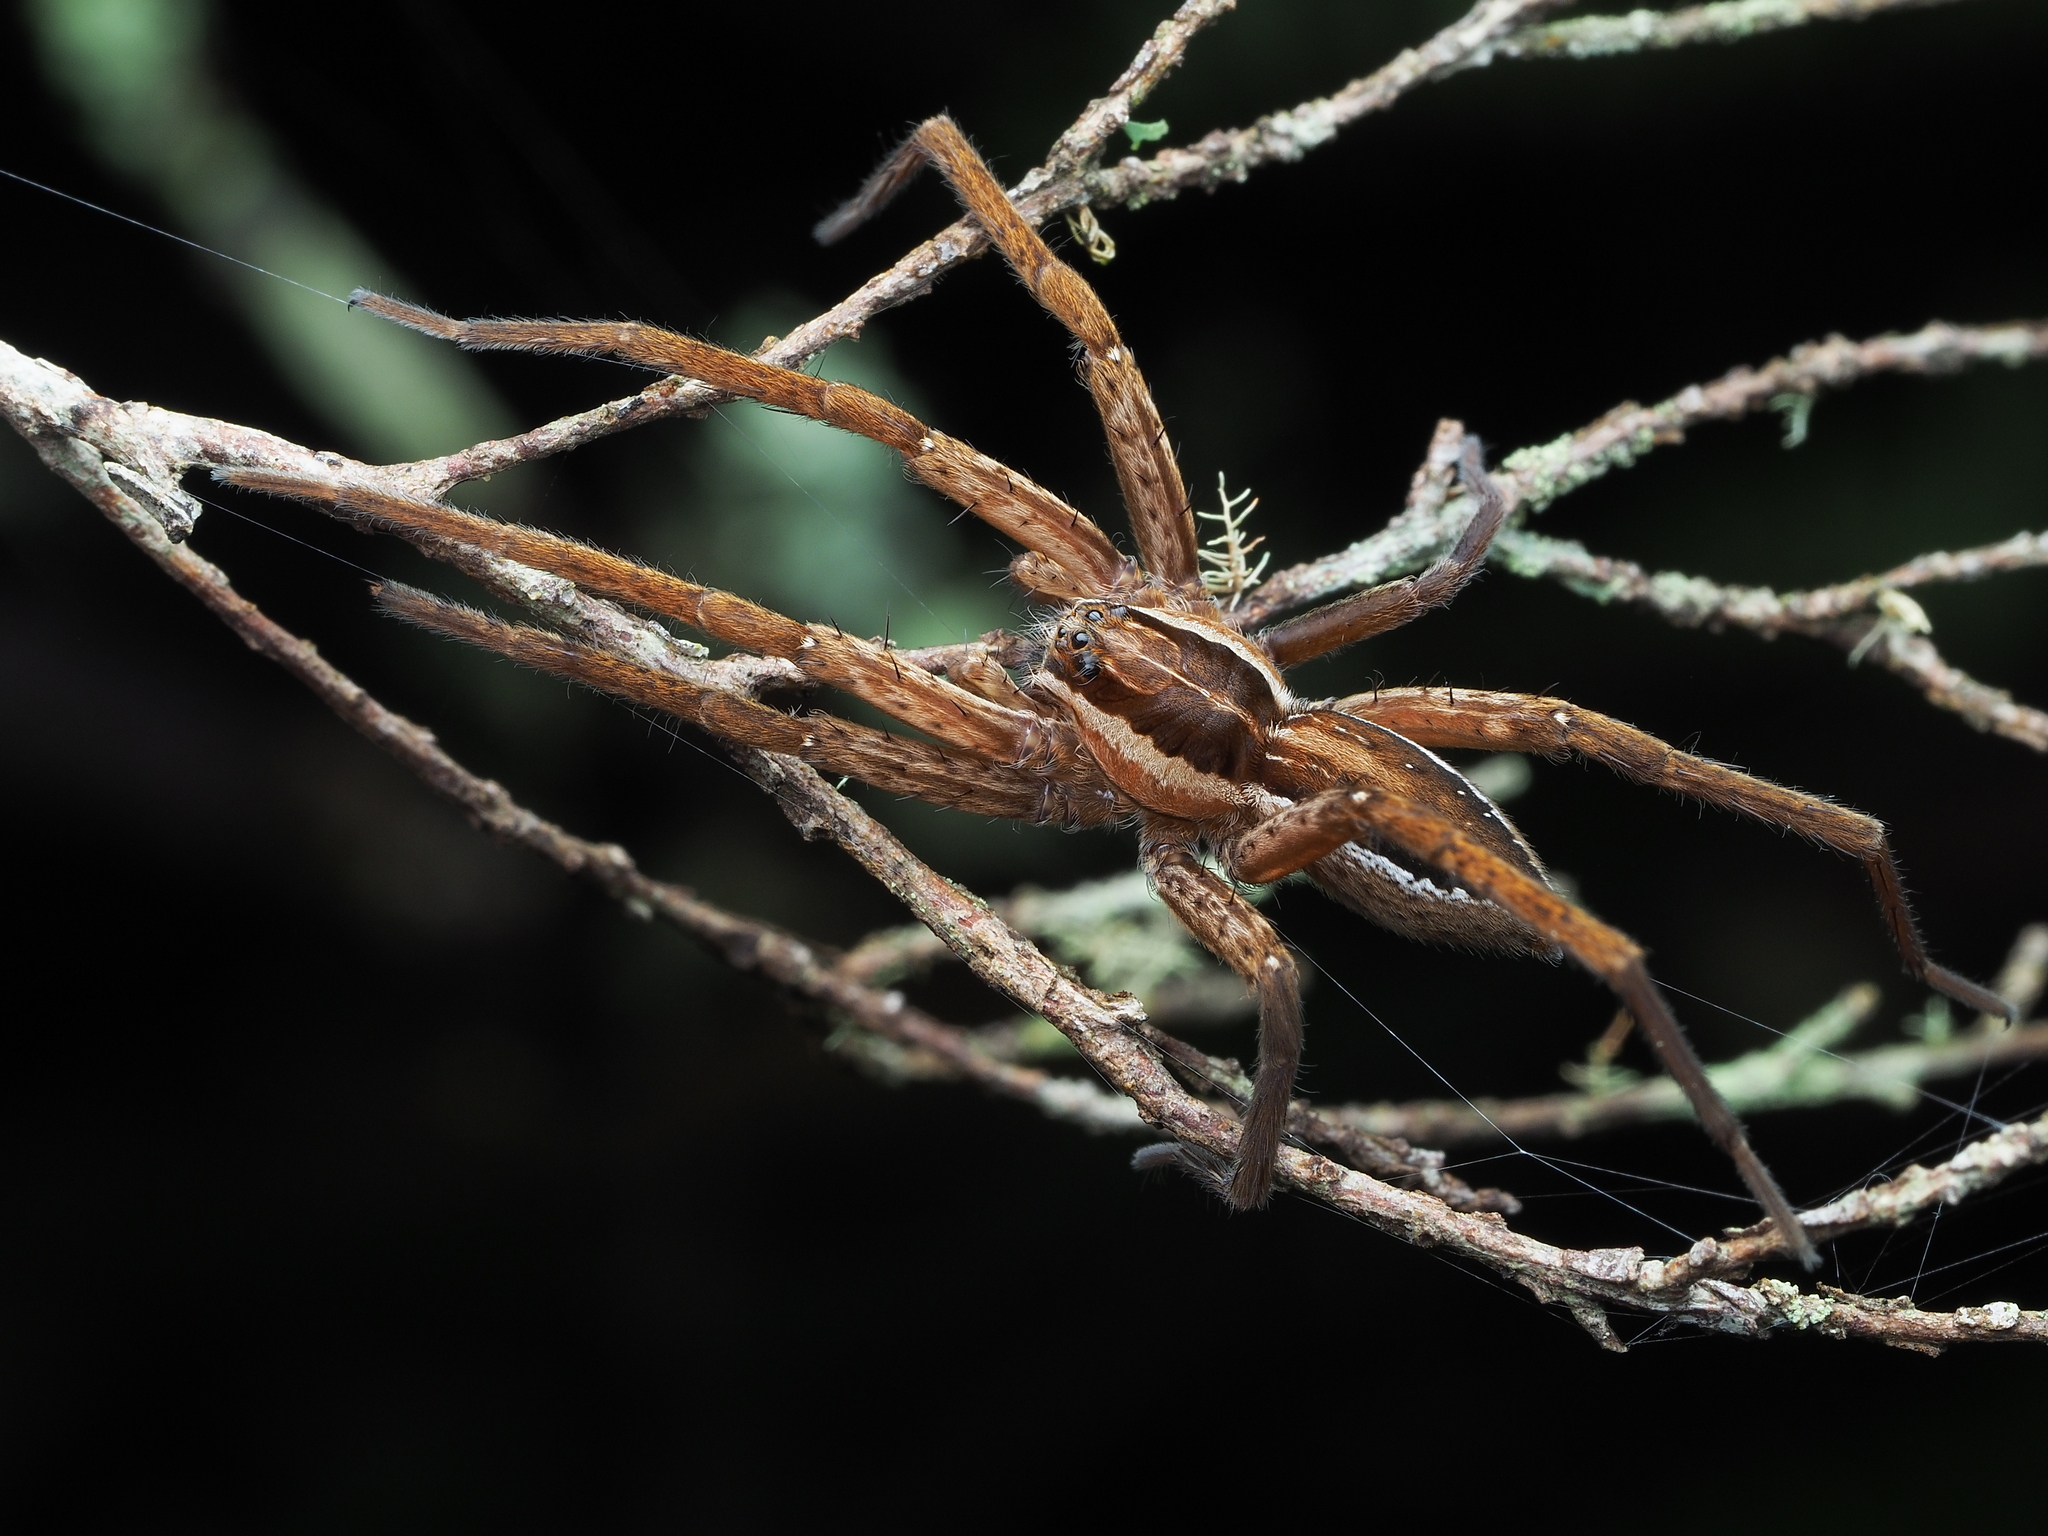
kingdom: Animalia
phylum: Arthropoda
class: Arachnida
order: Araneae
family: Pisauridae
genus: Dolomedes
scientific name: Dolomedes minor
